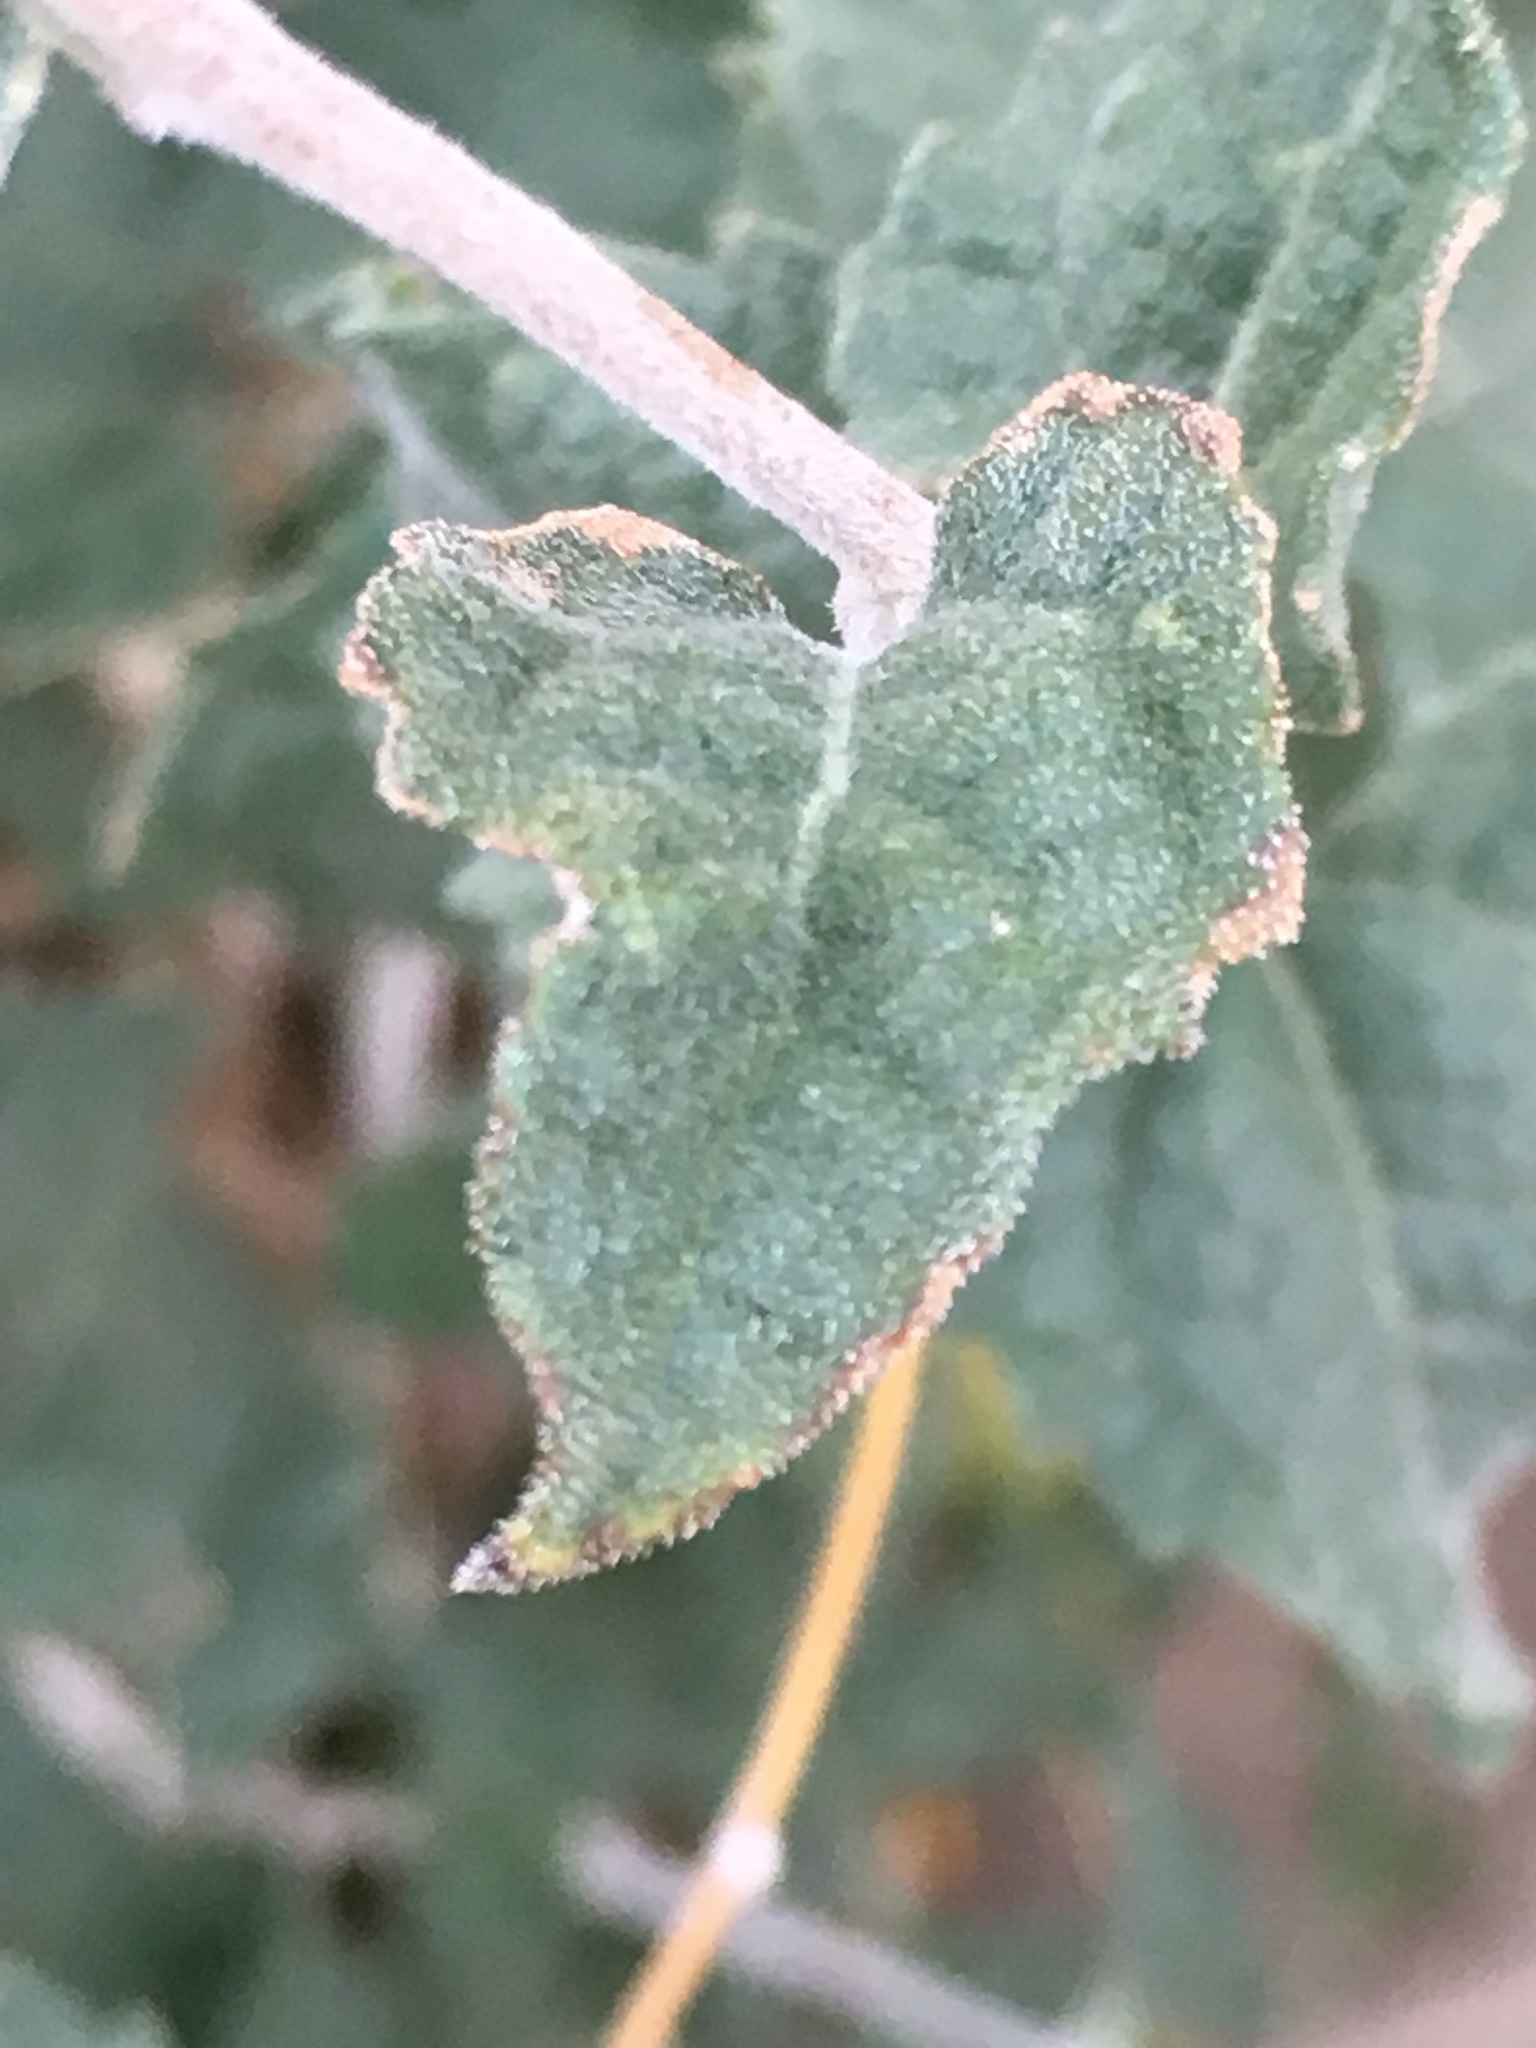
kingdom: Plantae
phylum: Tracheophyta
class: Magnoliopsida
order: Asterales
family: Asteraceae
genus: Bahiopsis
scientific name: Bahiopsis parishii
